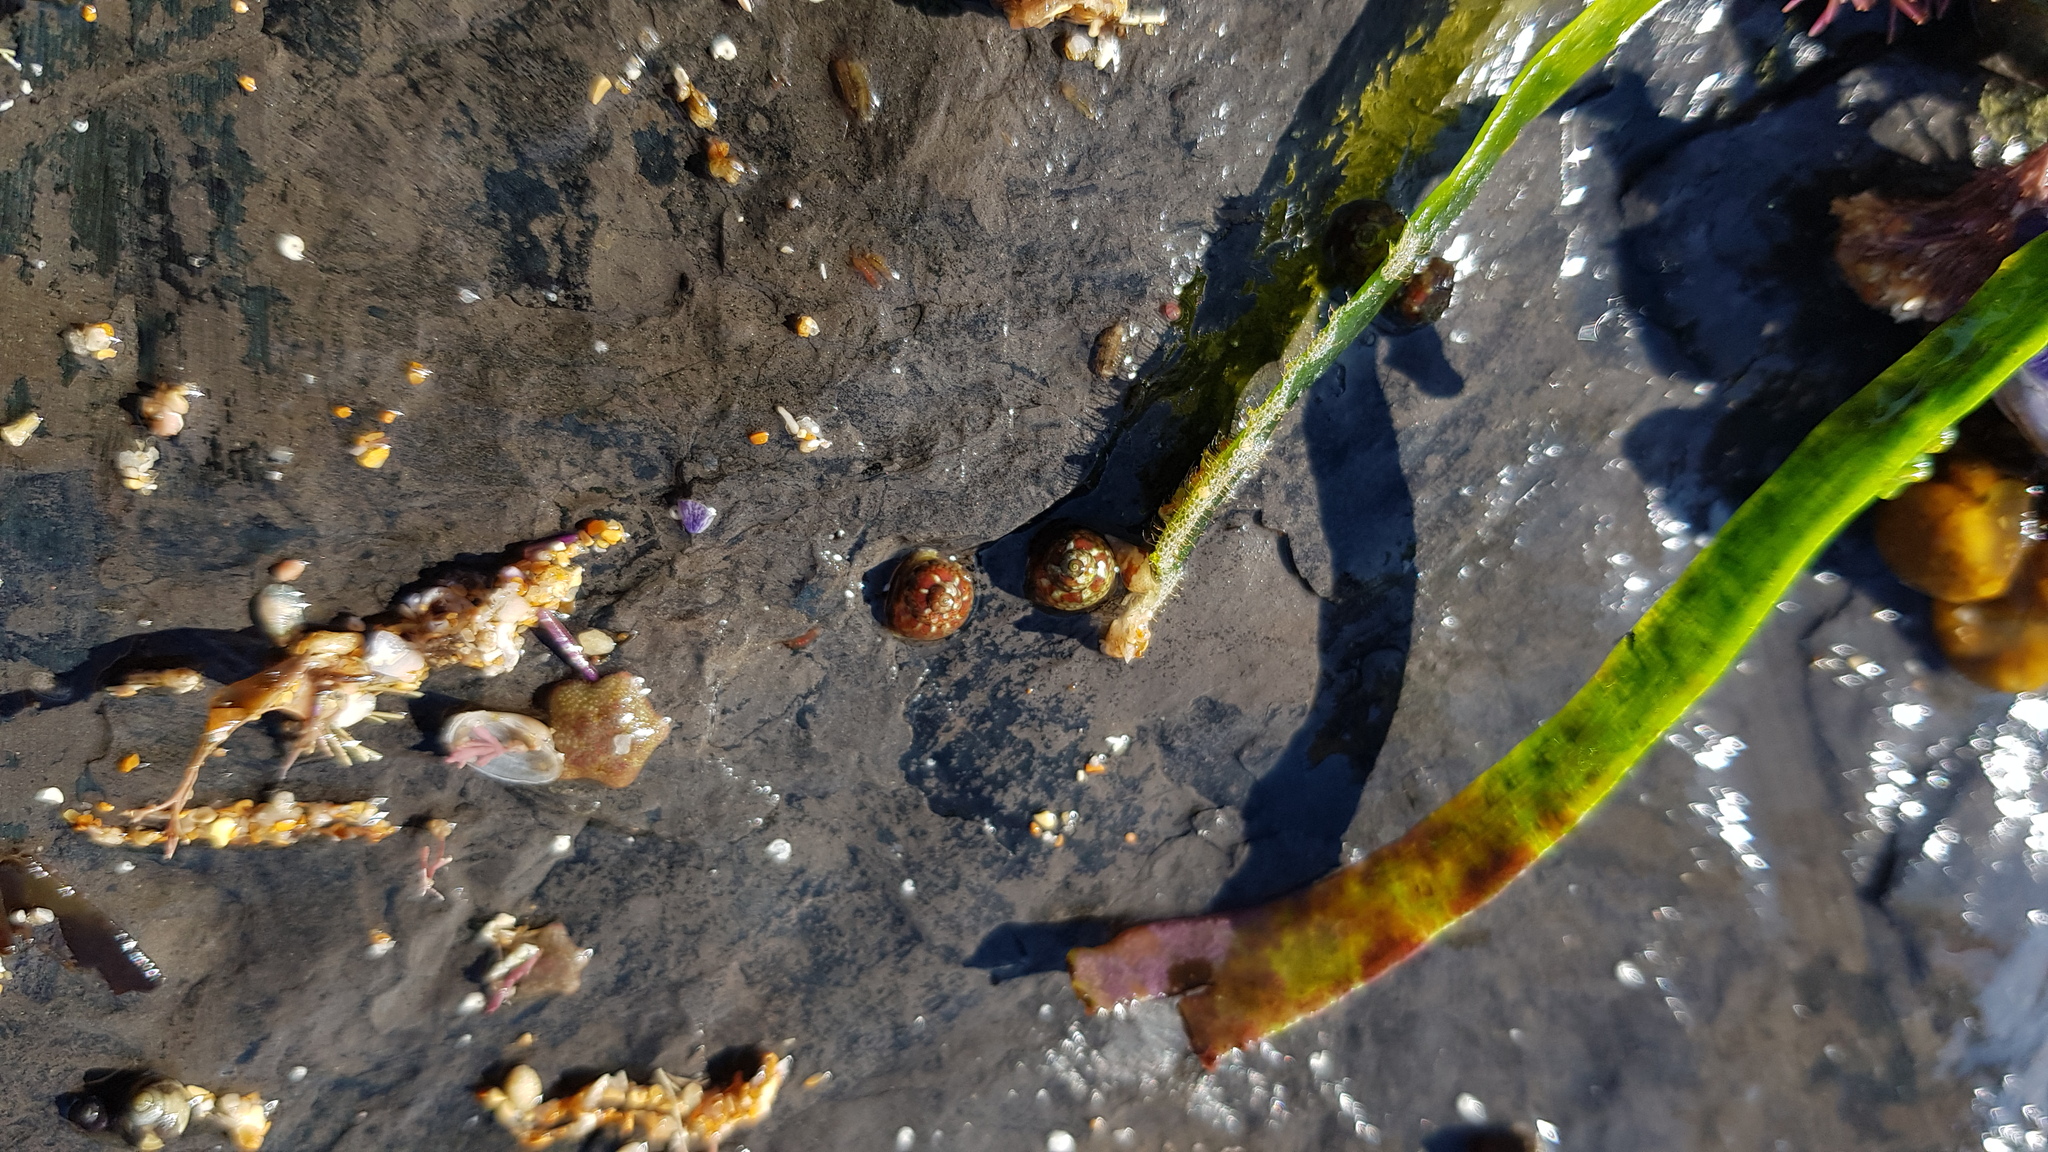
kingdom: Animalia
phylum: Mollusca
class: Gastropoda
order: Trochida
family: Trochidae
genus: Cantharidella
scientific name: Cantharidella picturata
